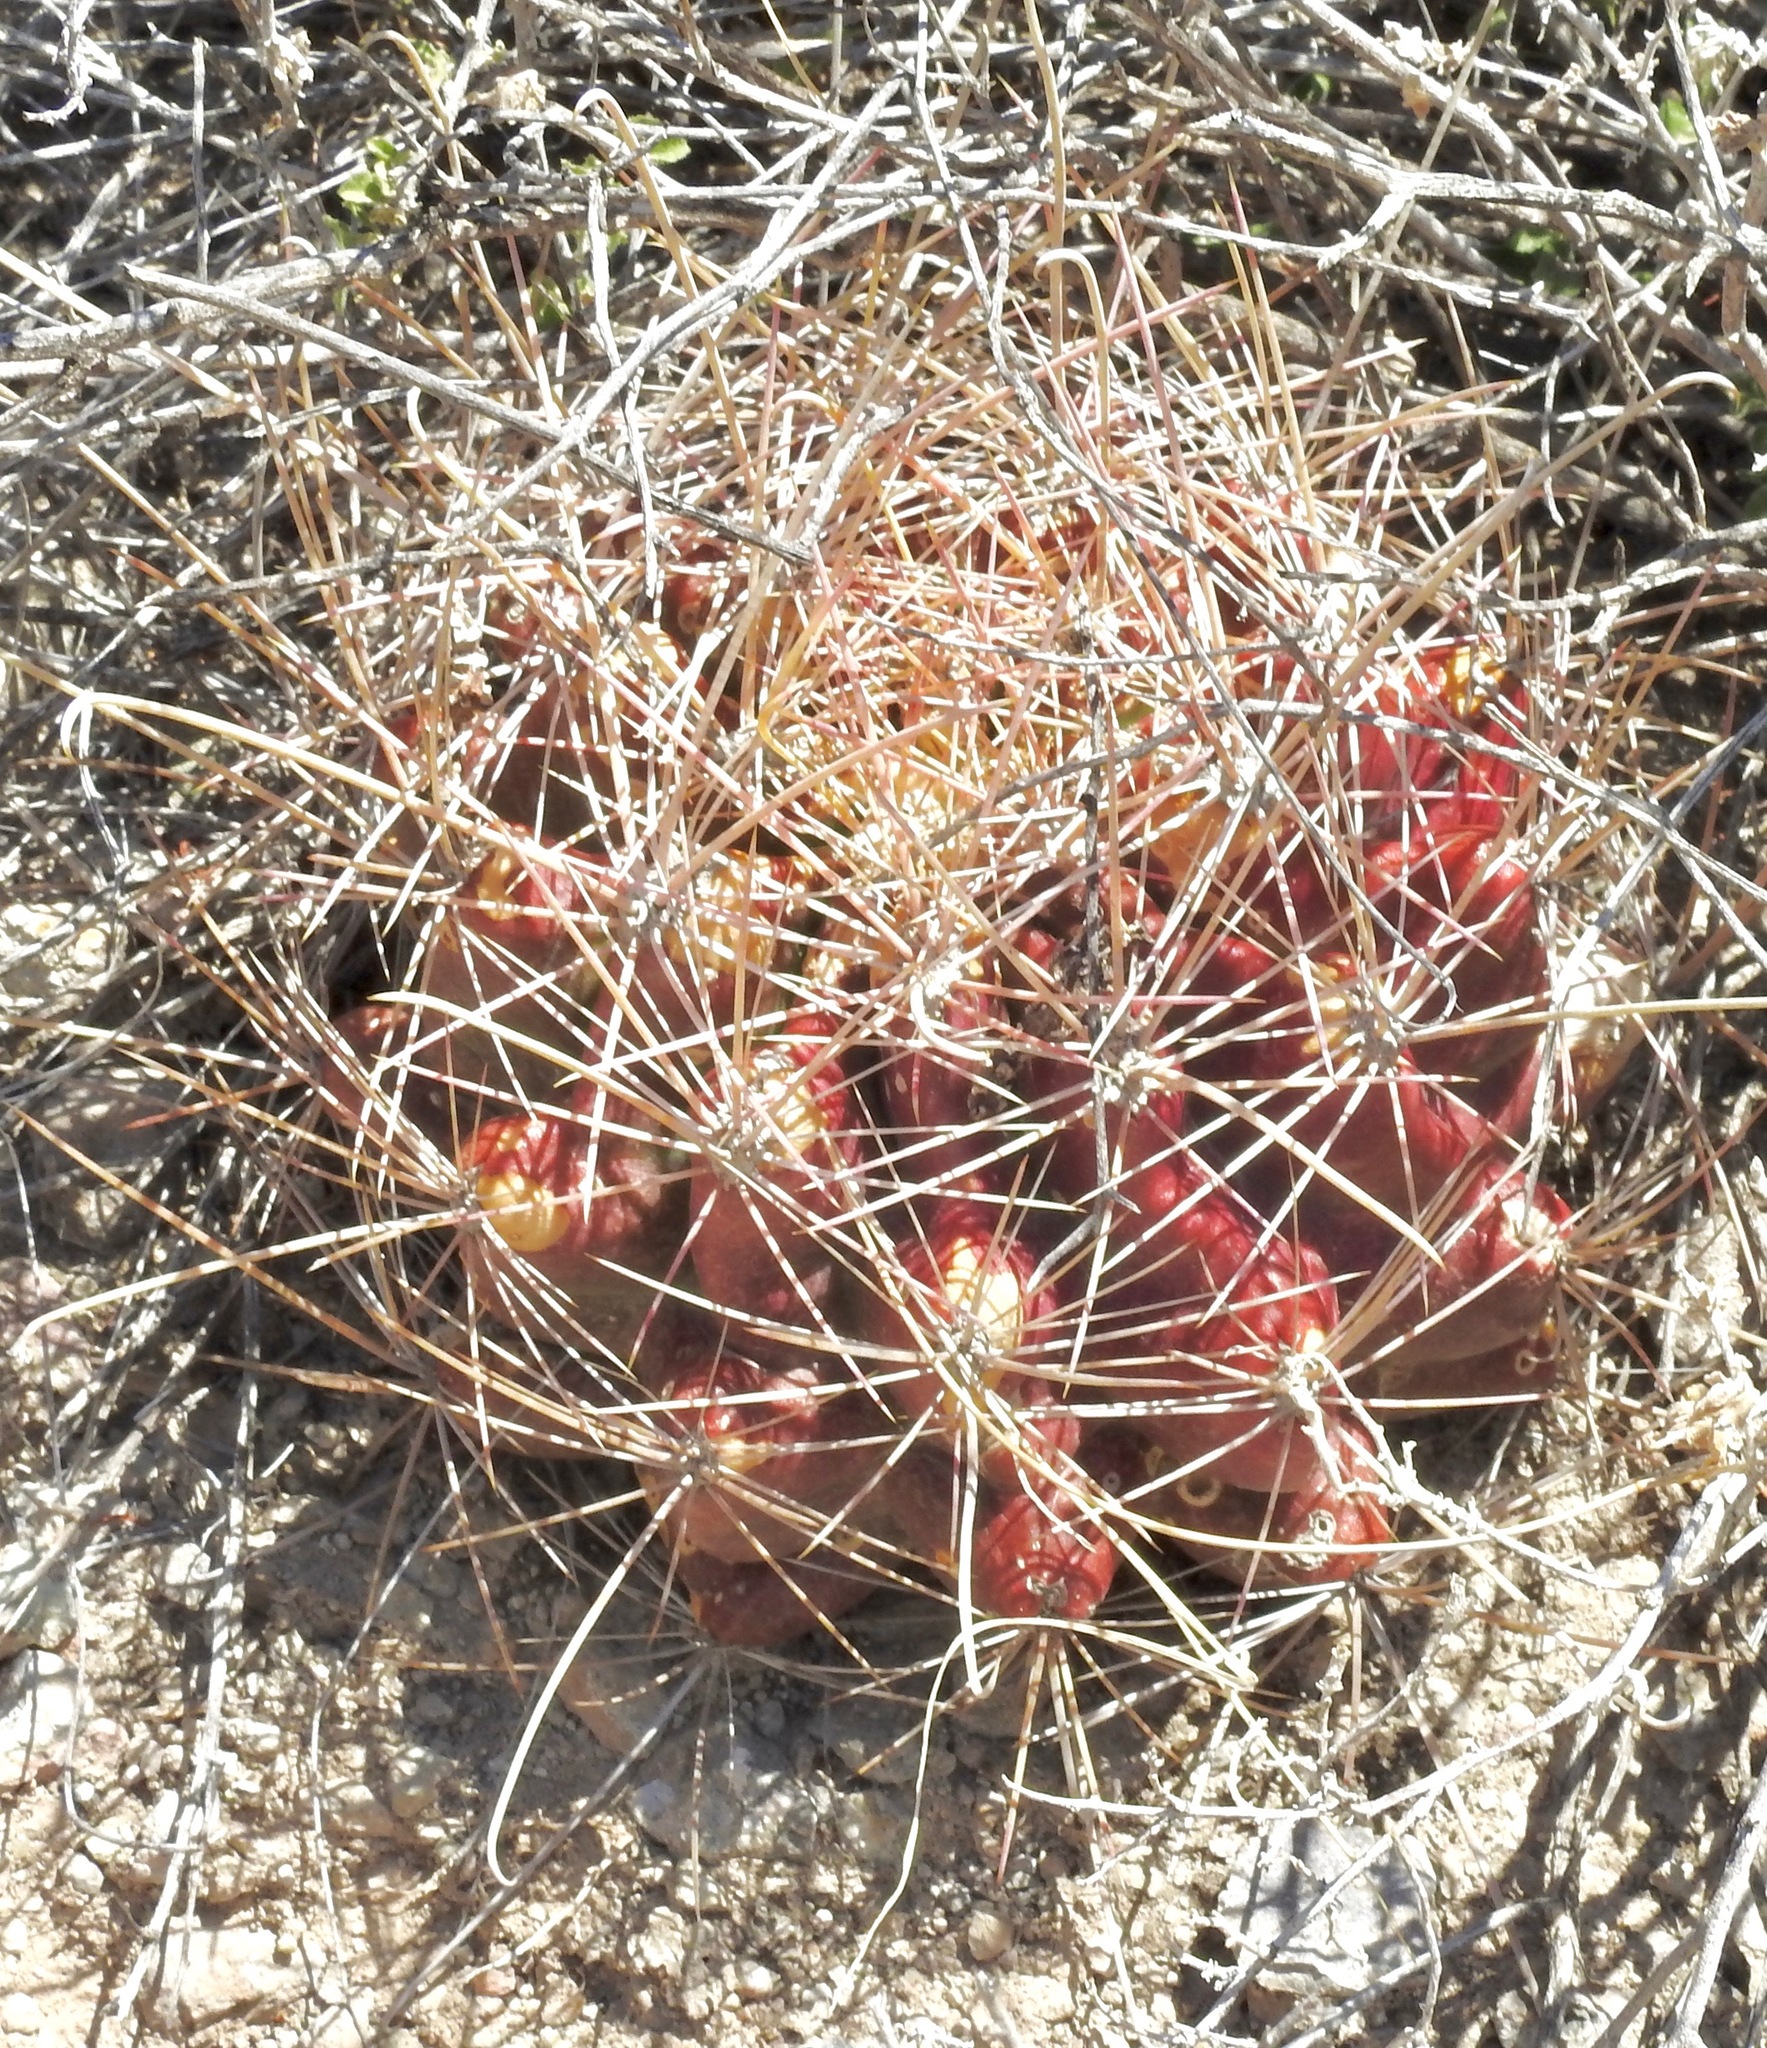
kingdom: Plantae
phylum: Tracheophyta
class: Magnoliopsida
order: Caryophyllales
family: Cactaceae
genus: Bisnaga
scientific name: Bisnaga hamatacantha
